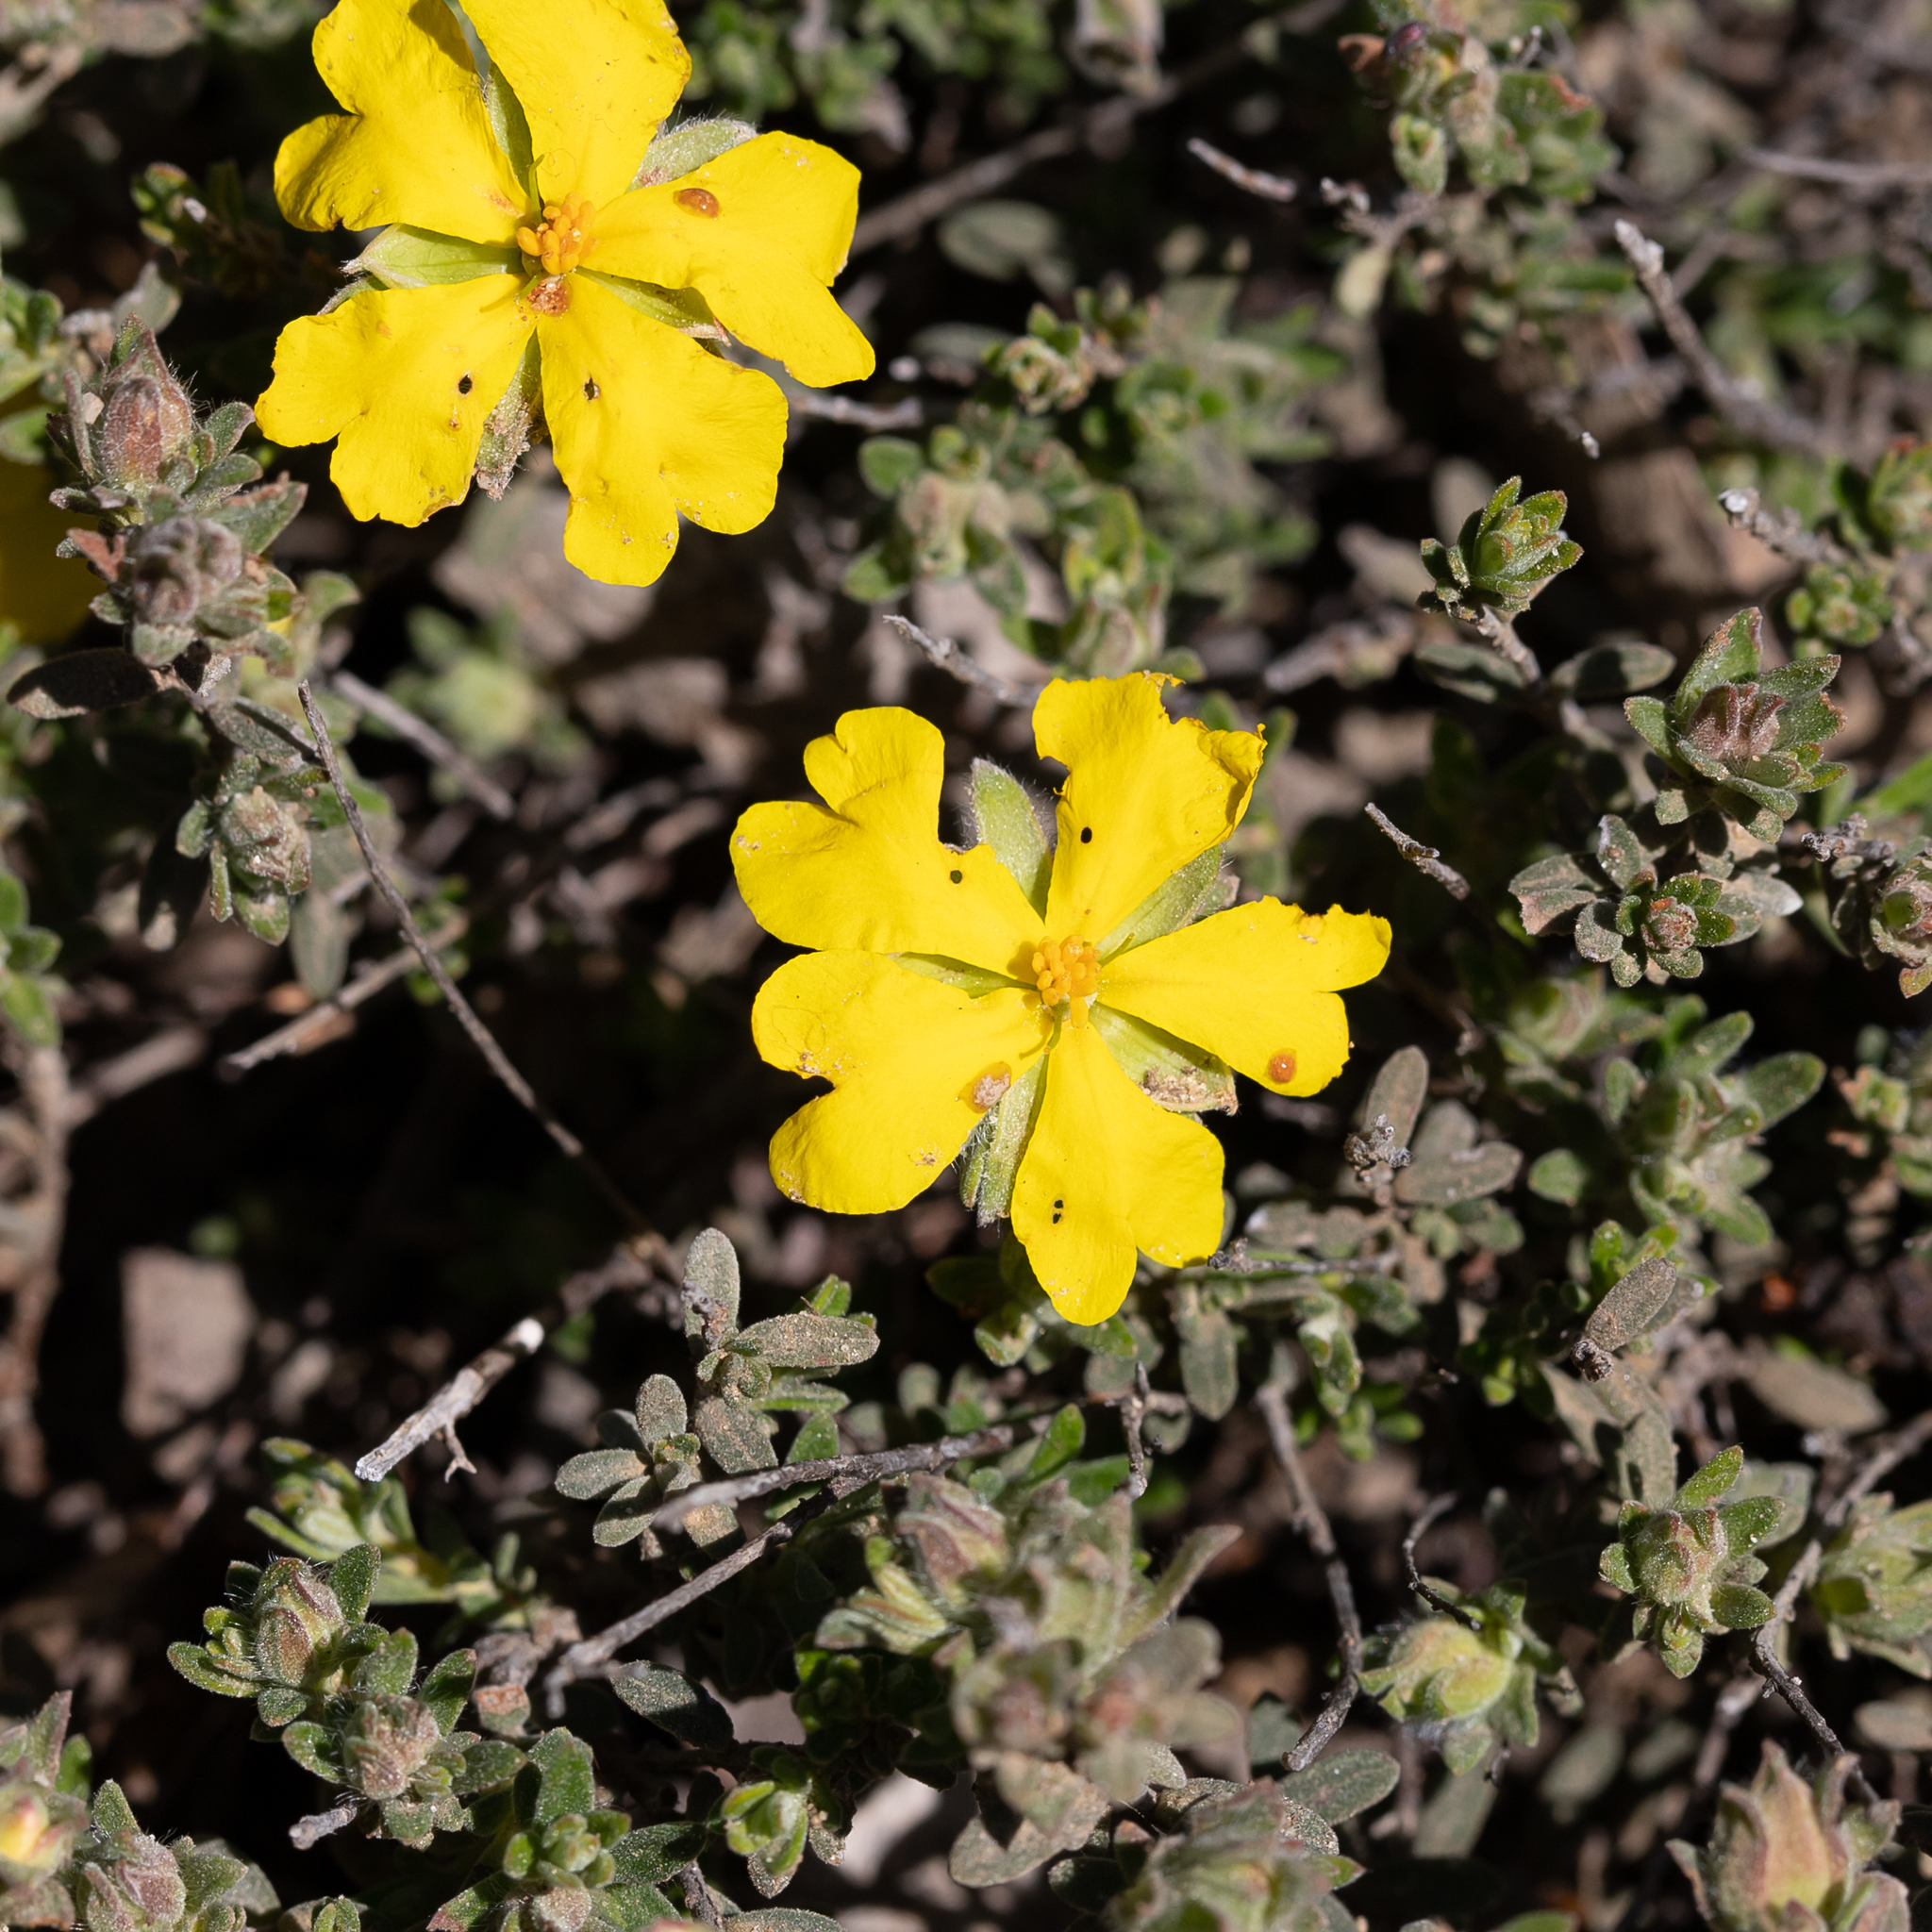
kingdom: Plantae
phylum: Tracheophyta
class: Magnoliopsida
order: Dilleniales
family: Dilleniaceae
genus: Hibbertia
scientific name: Hibbertia crinita
